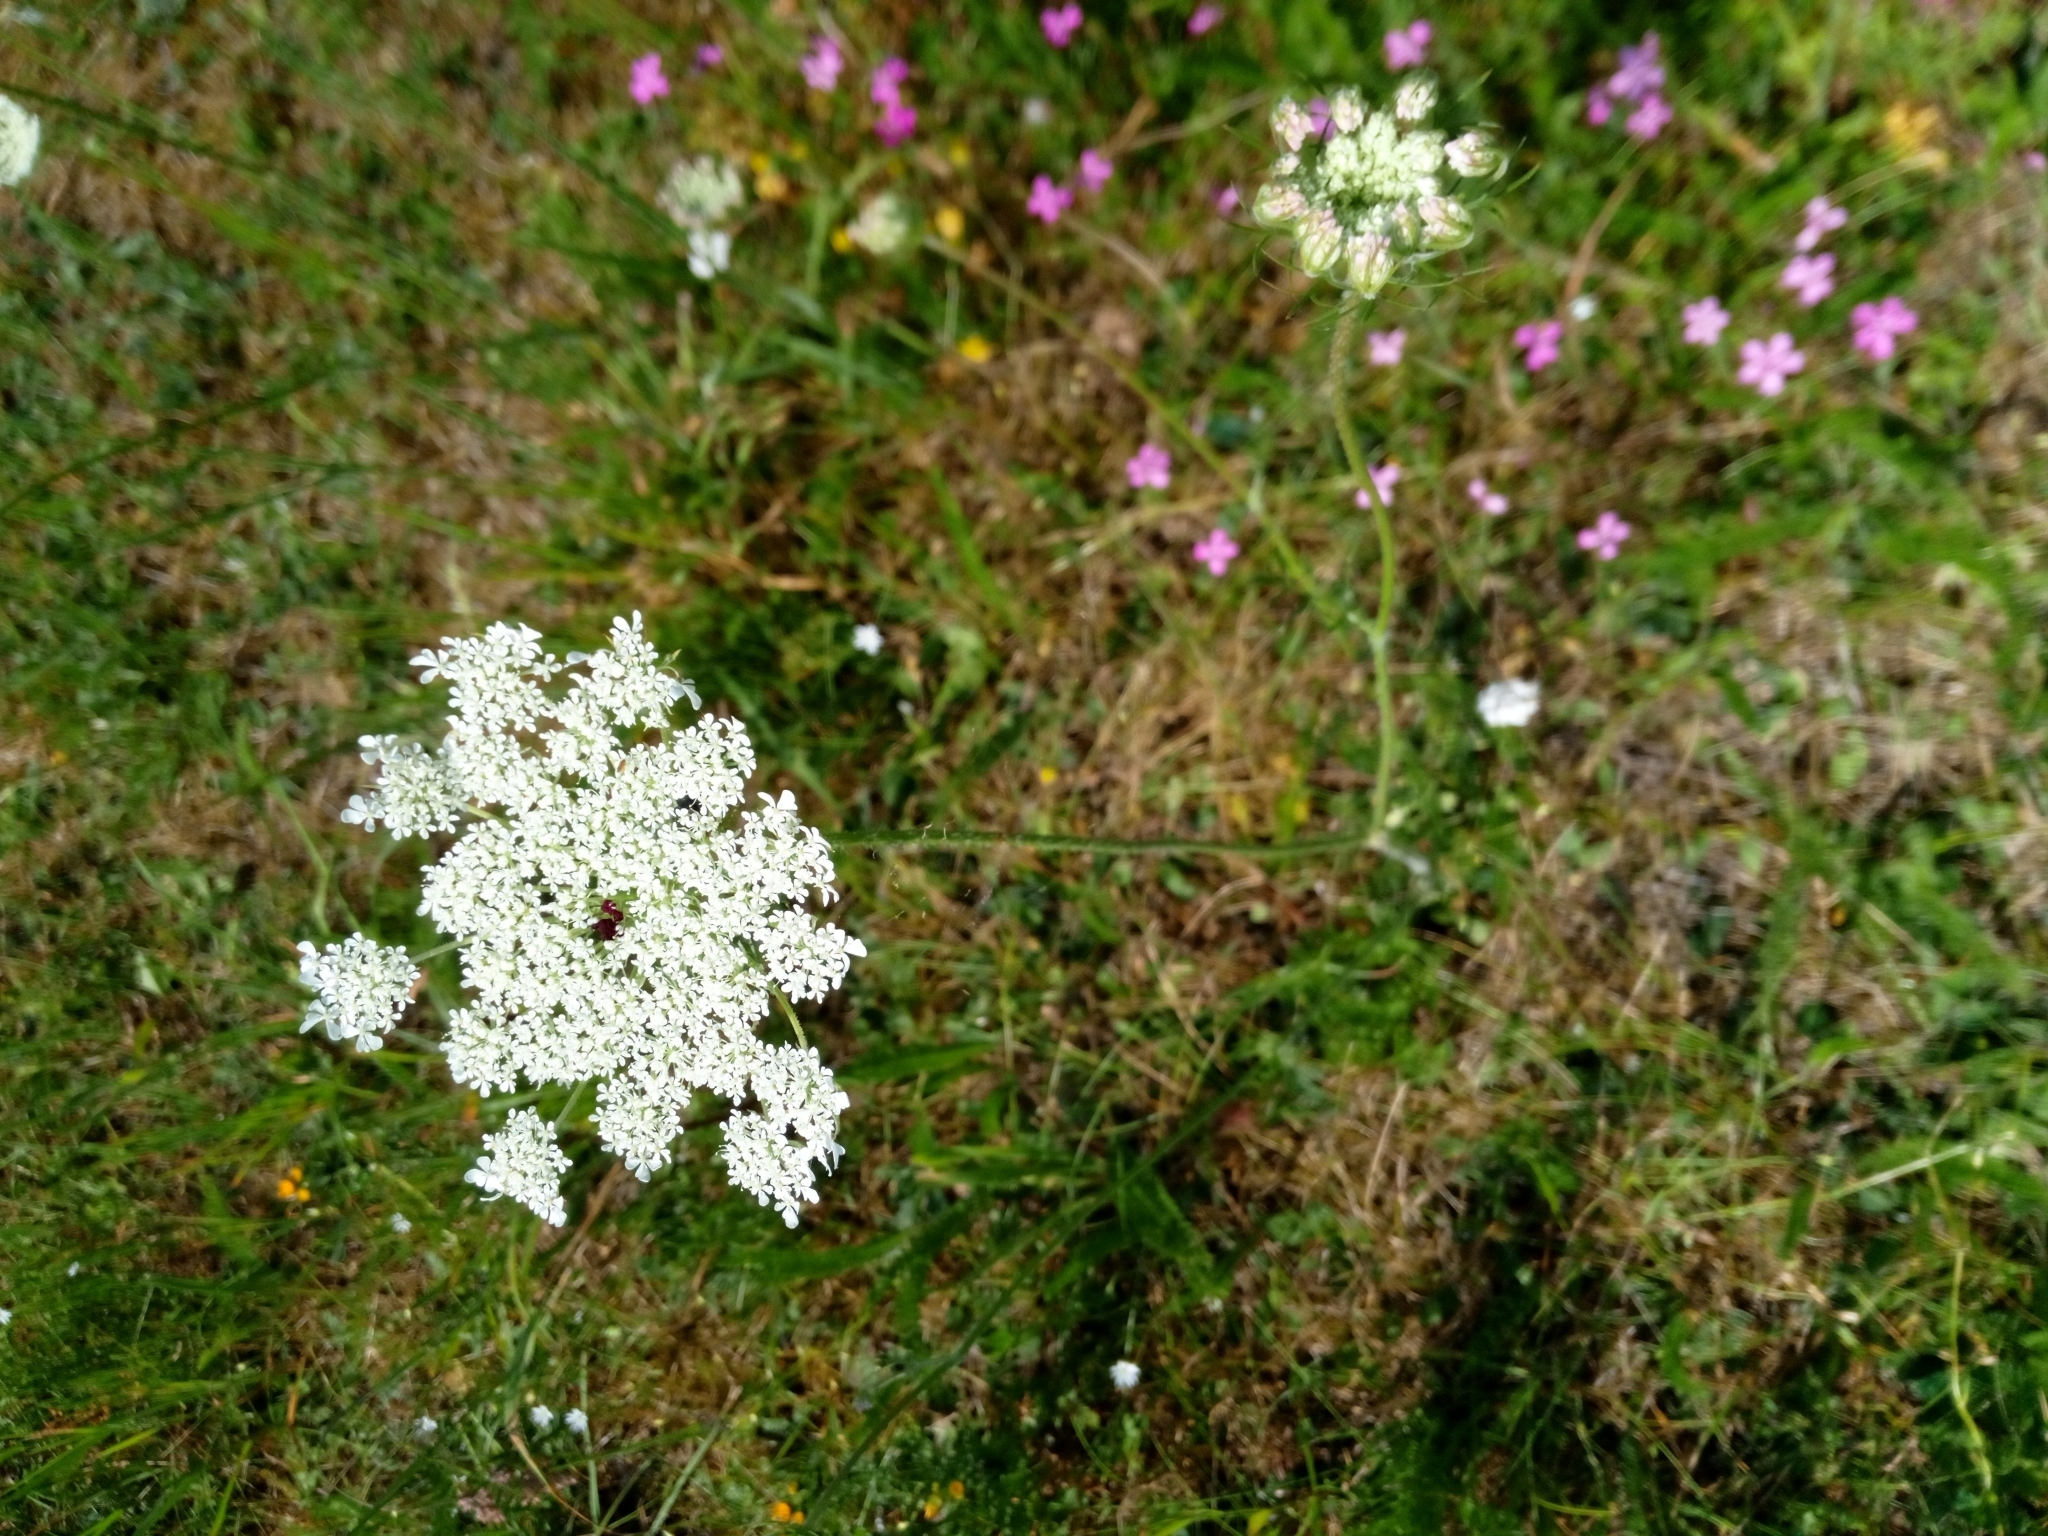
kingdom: Plantae
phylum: Tracheophyta
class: Magnoliopsida
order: Apiales
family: Apiaceae
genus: Daucus
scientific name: Daucus carota
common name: Wild carrot
